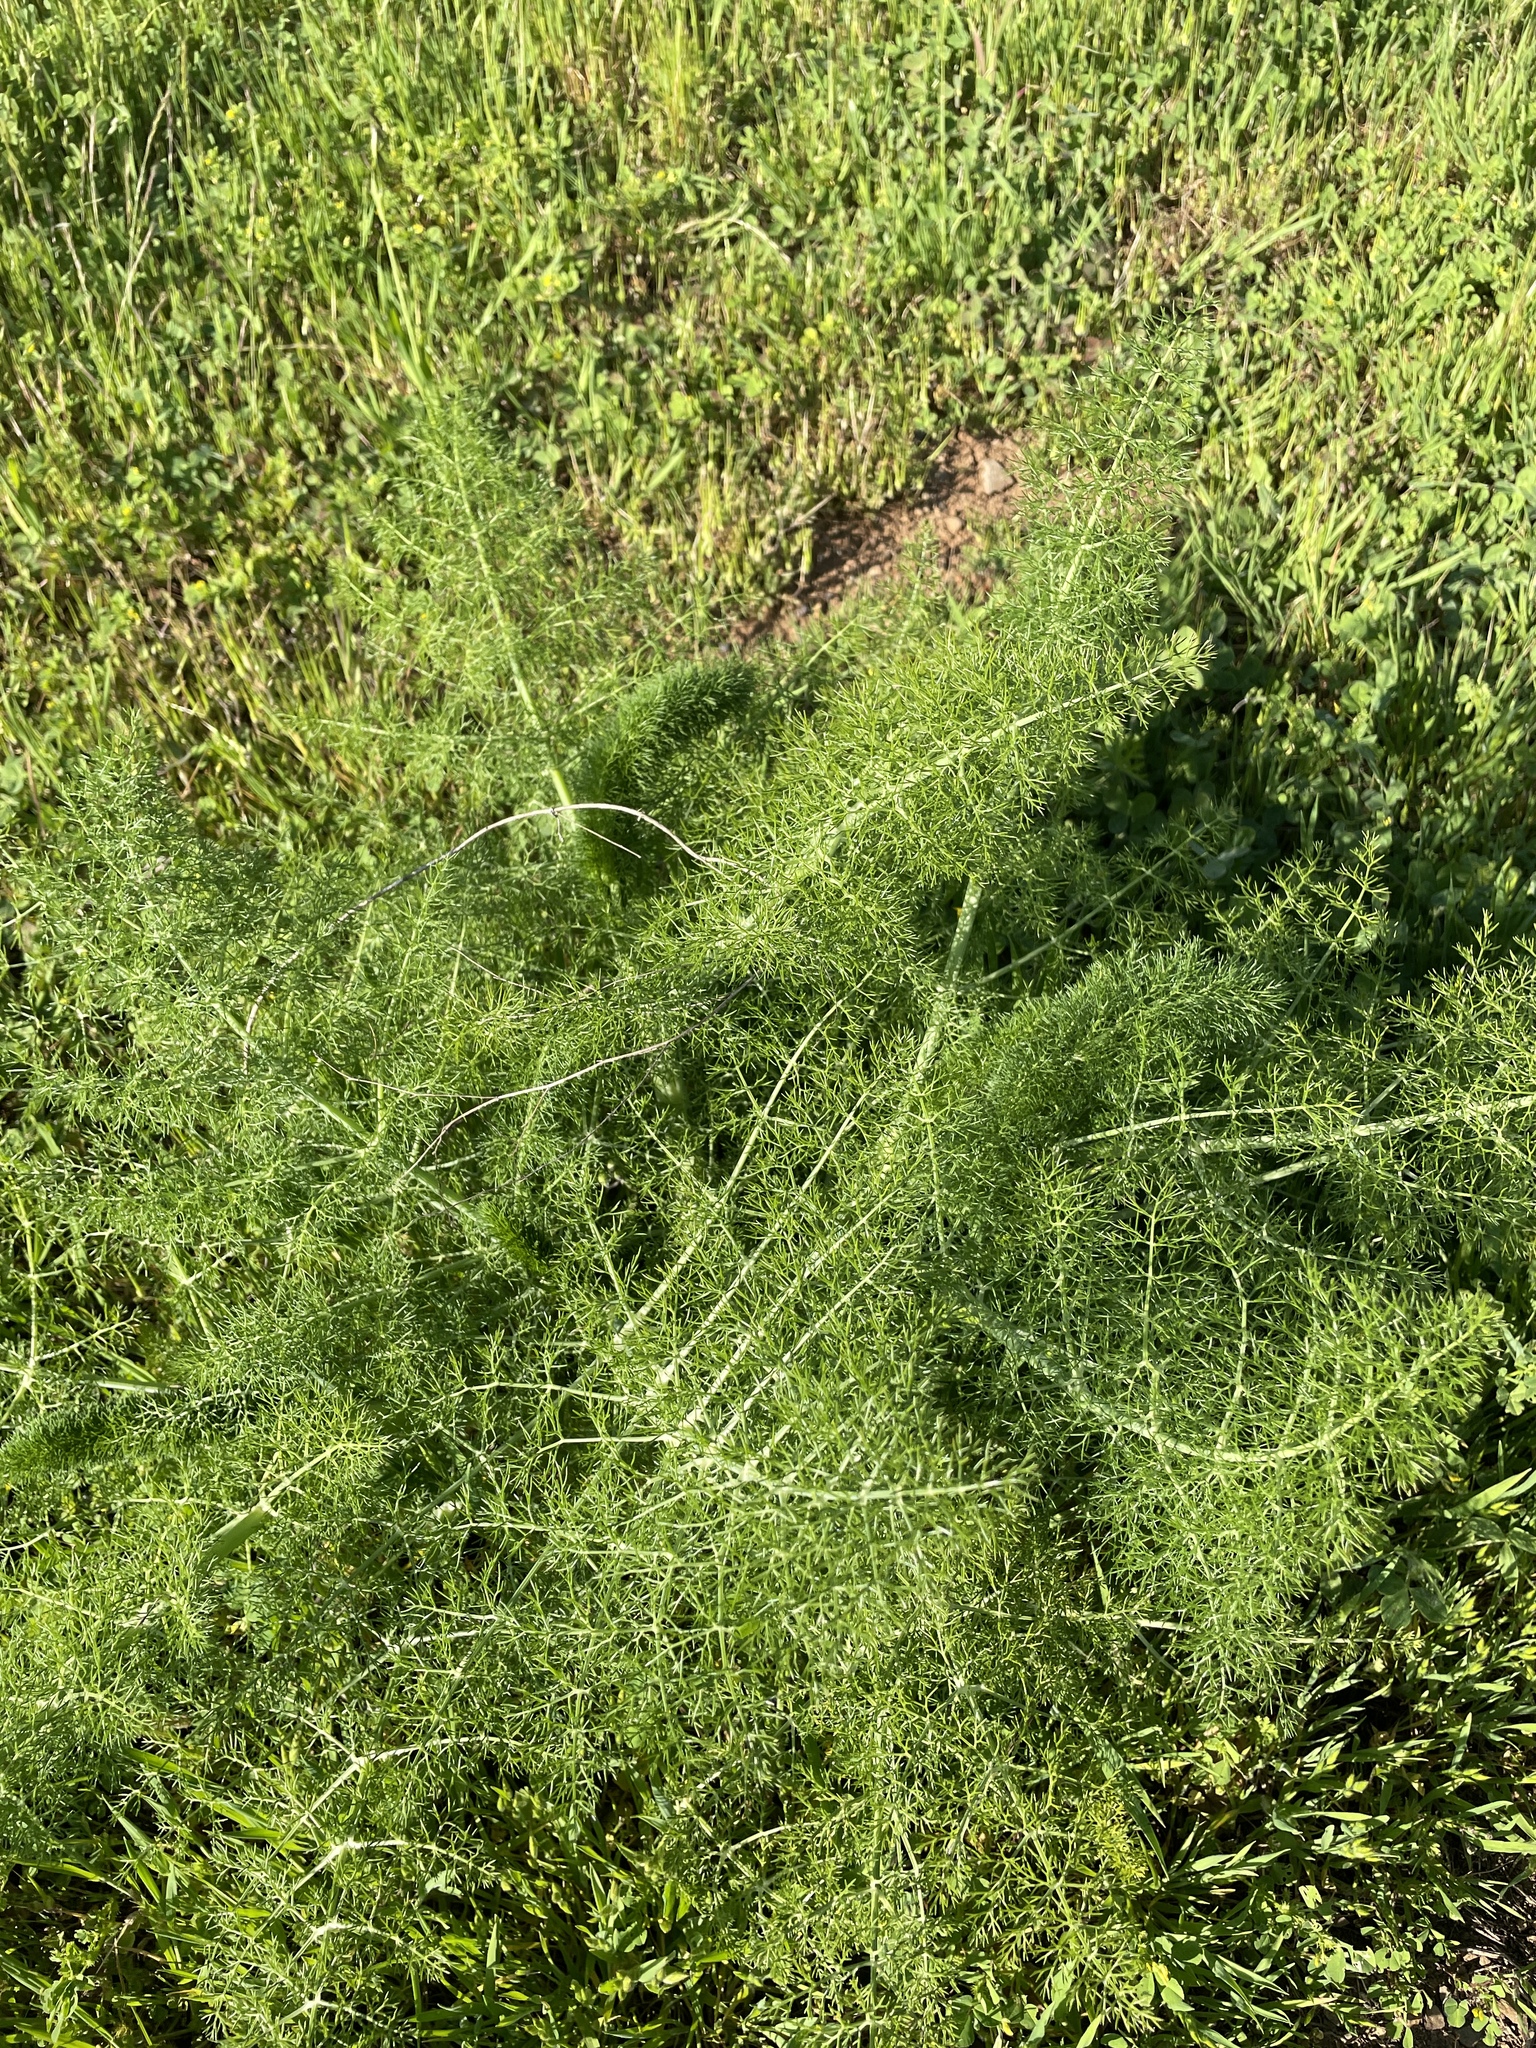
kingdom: Plantae
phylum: Tracheophyta
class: Magnoliopsida
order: Apiales
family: Apiaceae
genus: Foeniculum
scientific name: Foeniculum vulgare
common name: Fennel
